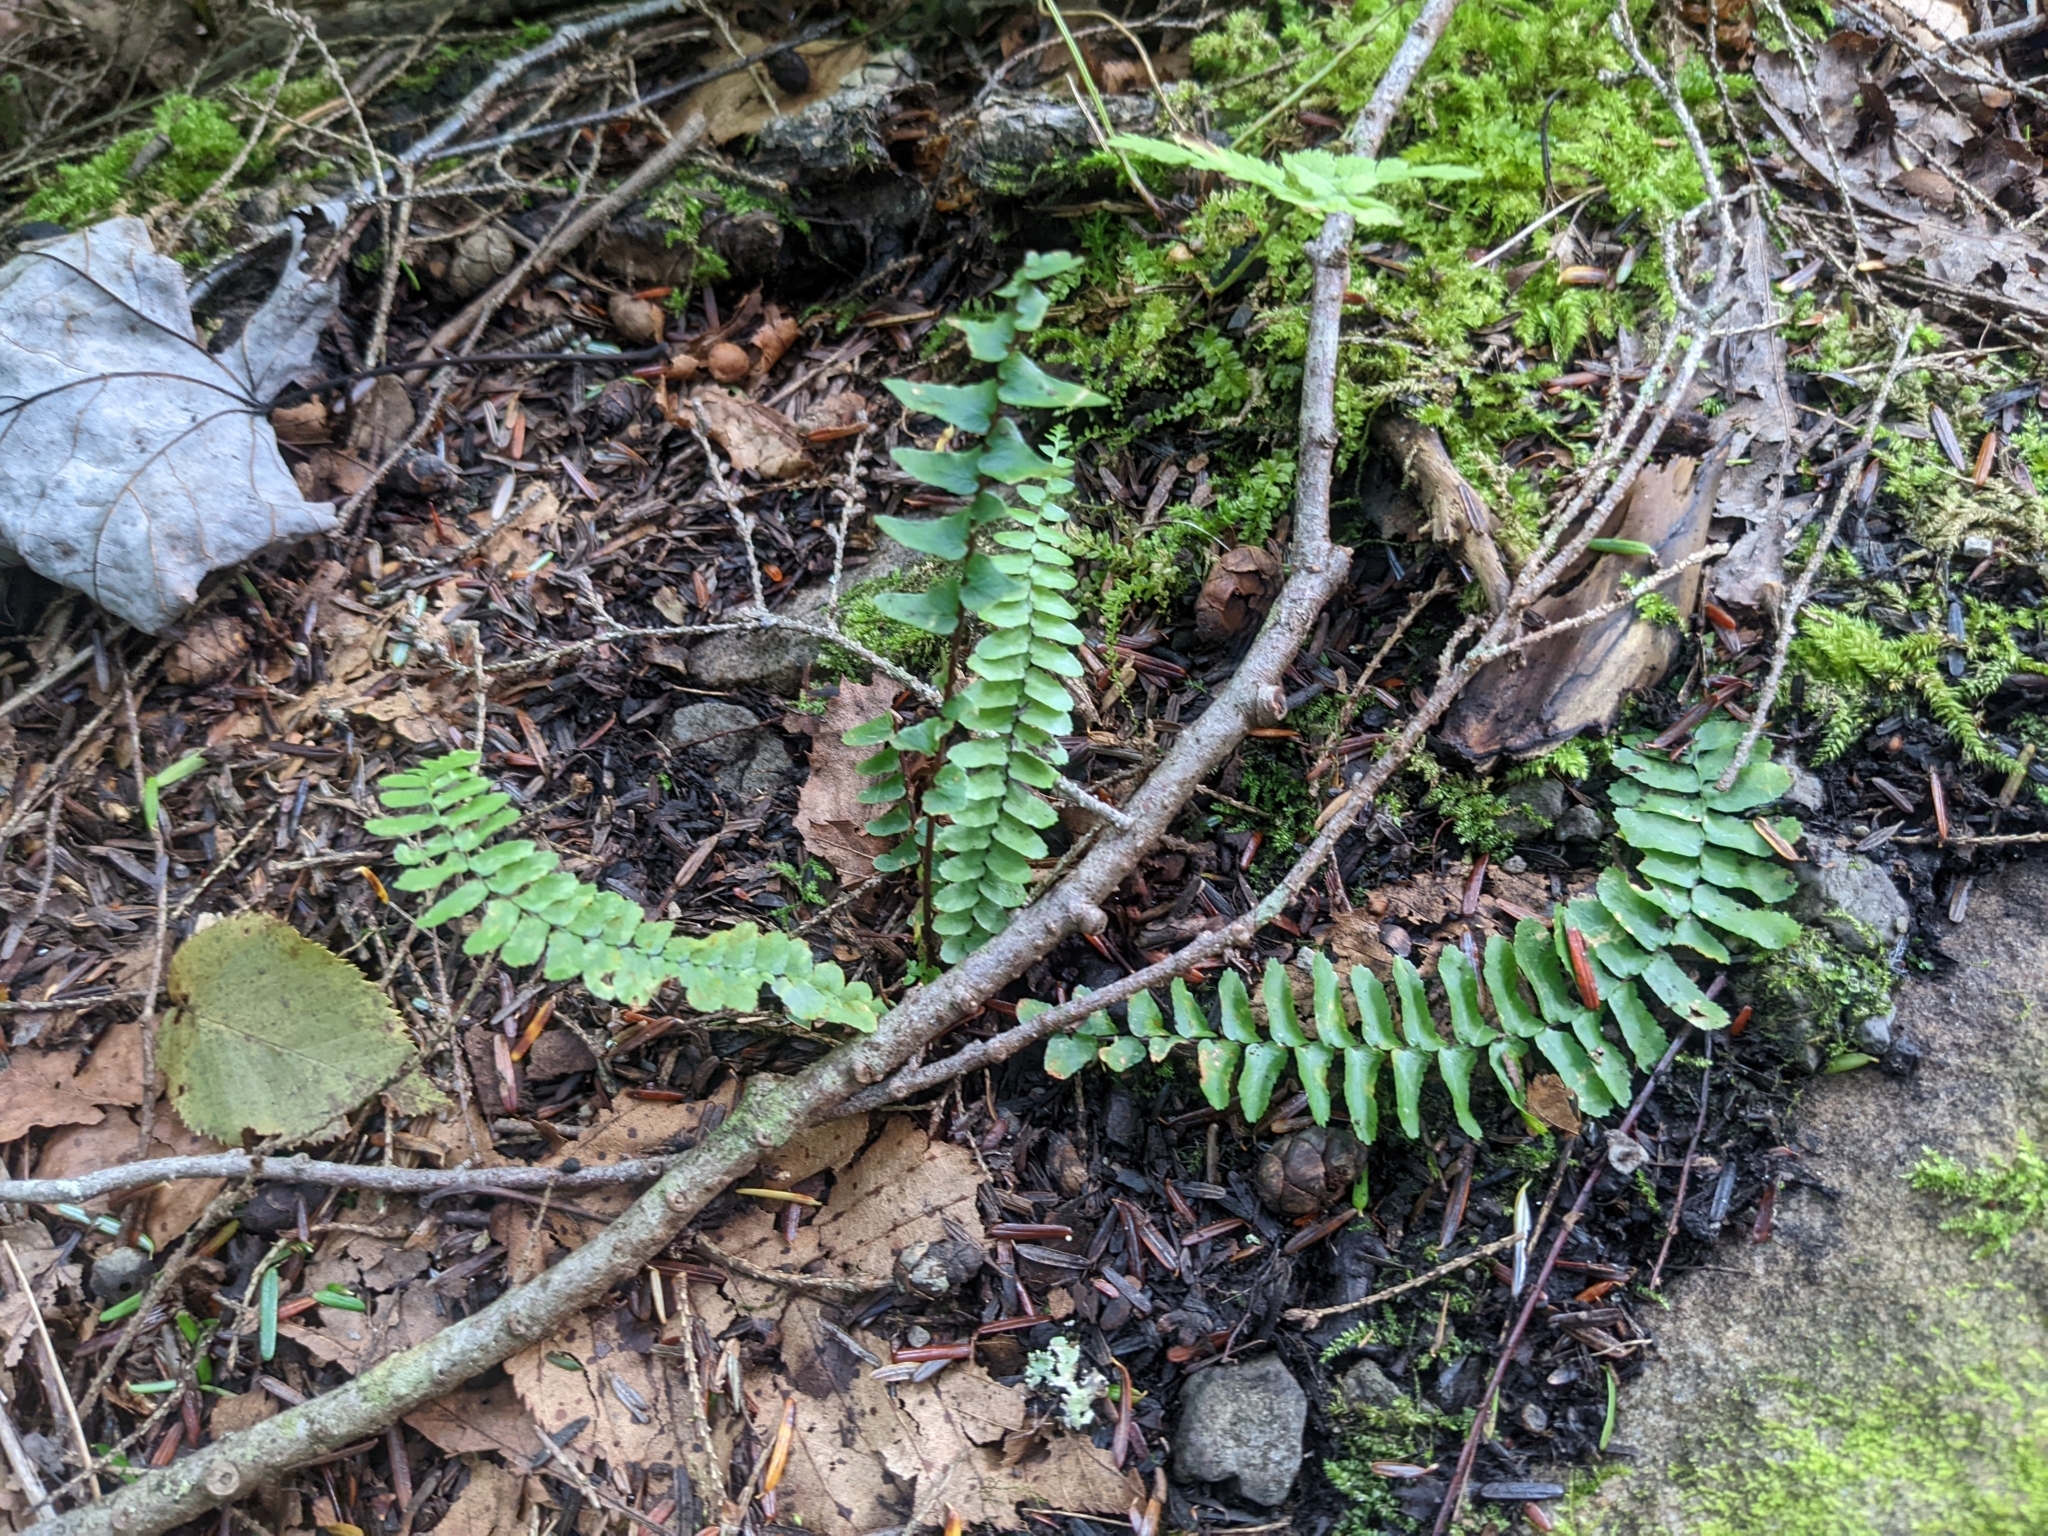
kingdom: Plantae
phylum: Tracheophyta
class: Polypodiopsida
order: Polypodiales
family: Aspleniaceae
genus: Asplenium
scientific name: Asplenium platyneuron
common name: Ebony spleenwort
